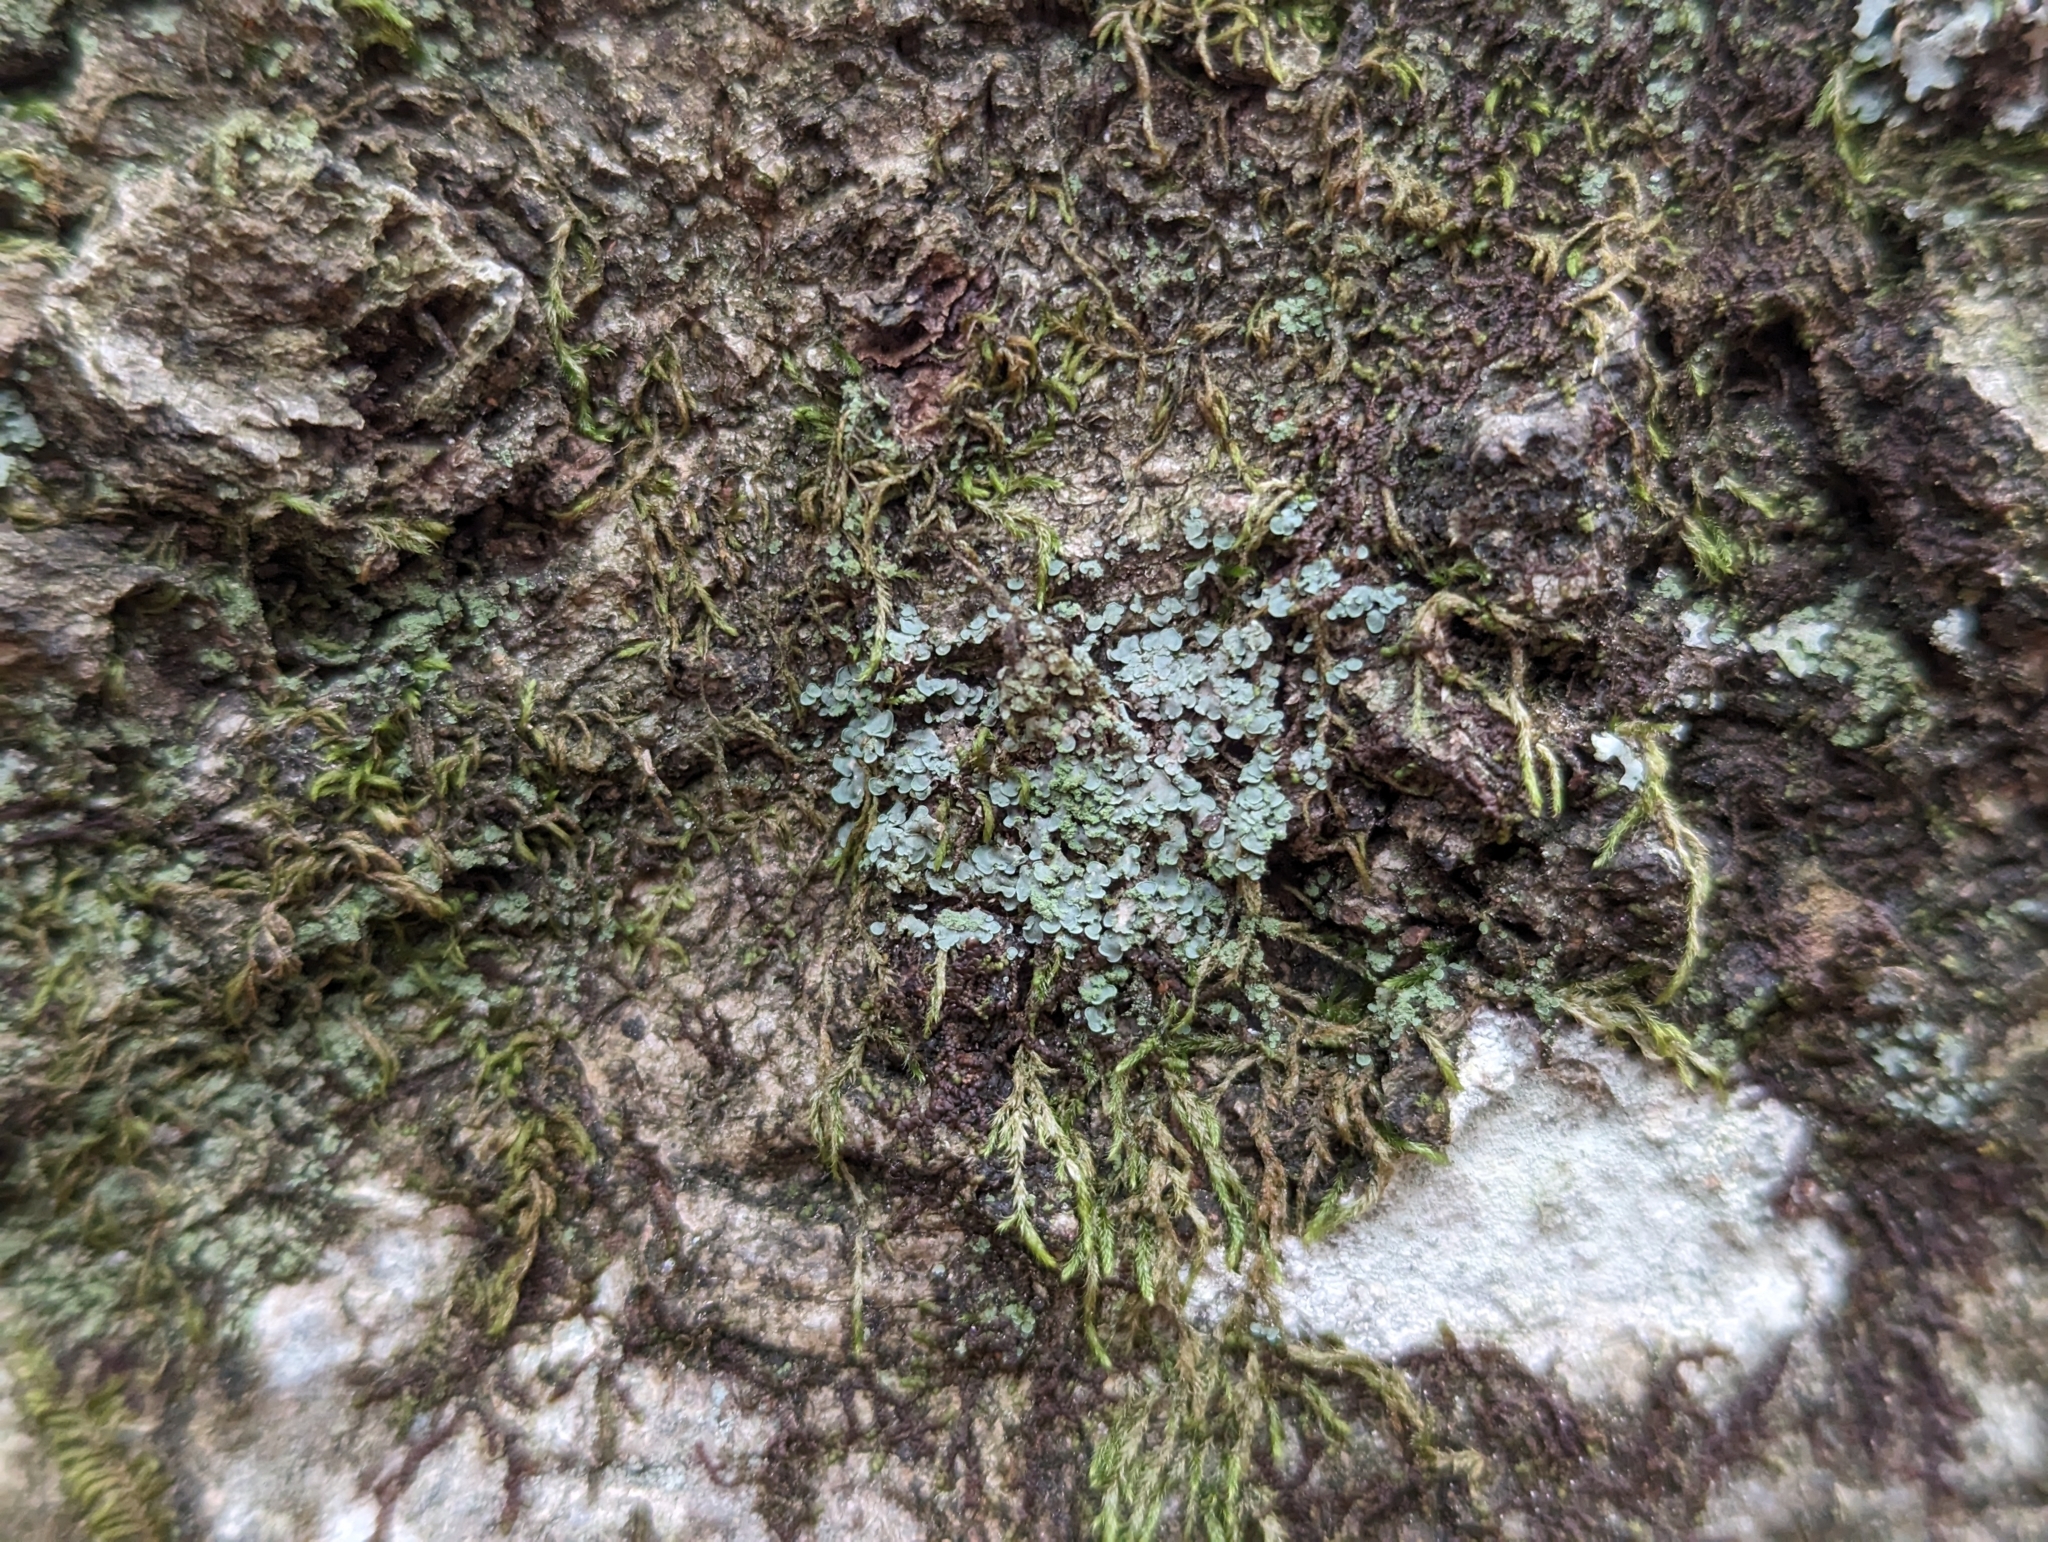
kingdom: Fungi
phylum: Ascomycota
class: Eurotiomycetes
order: Verrucariales
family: Verrucariaceae
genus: Normandina
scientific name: Normandina pulchella
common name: Elf ears lichen
